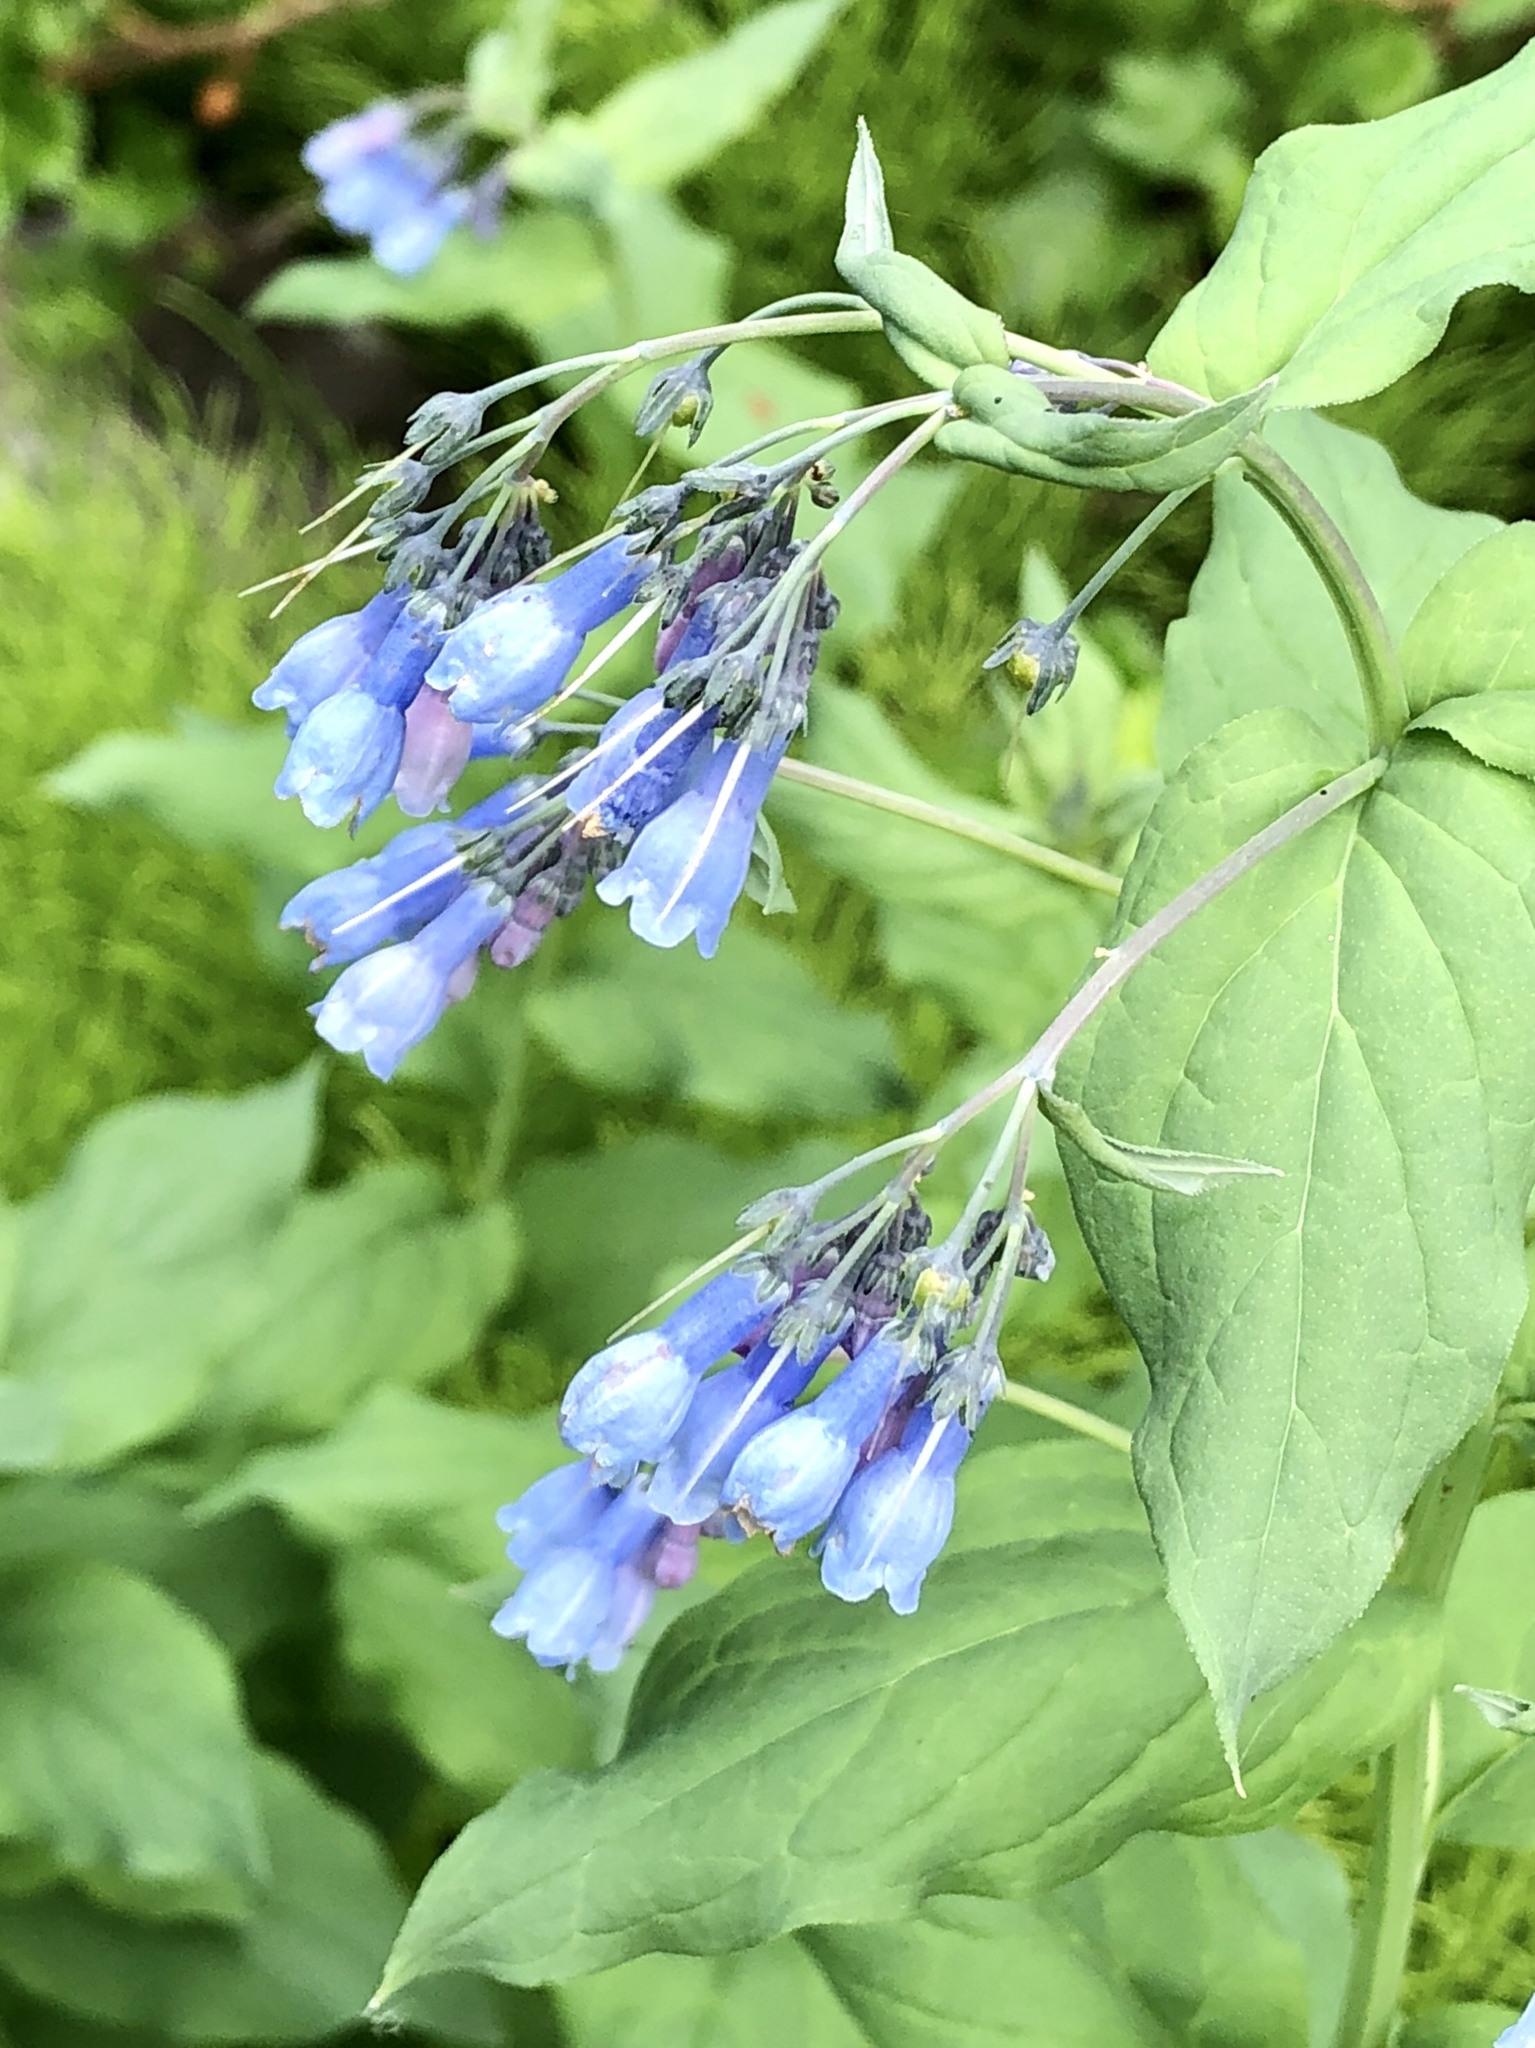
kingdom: Plantae
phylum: Tracheophyta
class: Magnoliopsida
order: Boraginales
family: Boraginaceae
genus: Mertensia
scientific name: Mertensia ciliata
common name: Tall chiming-bells
